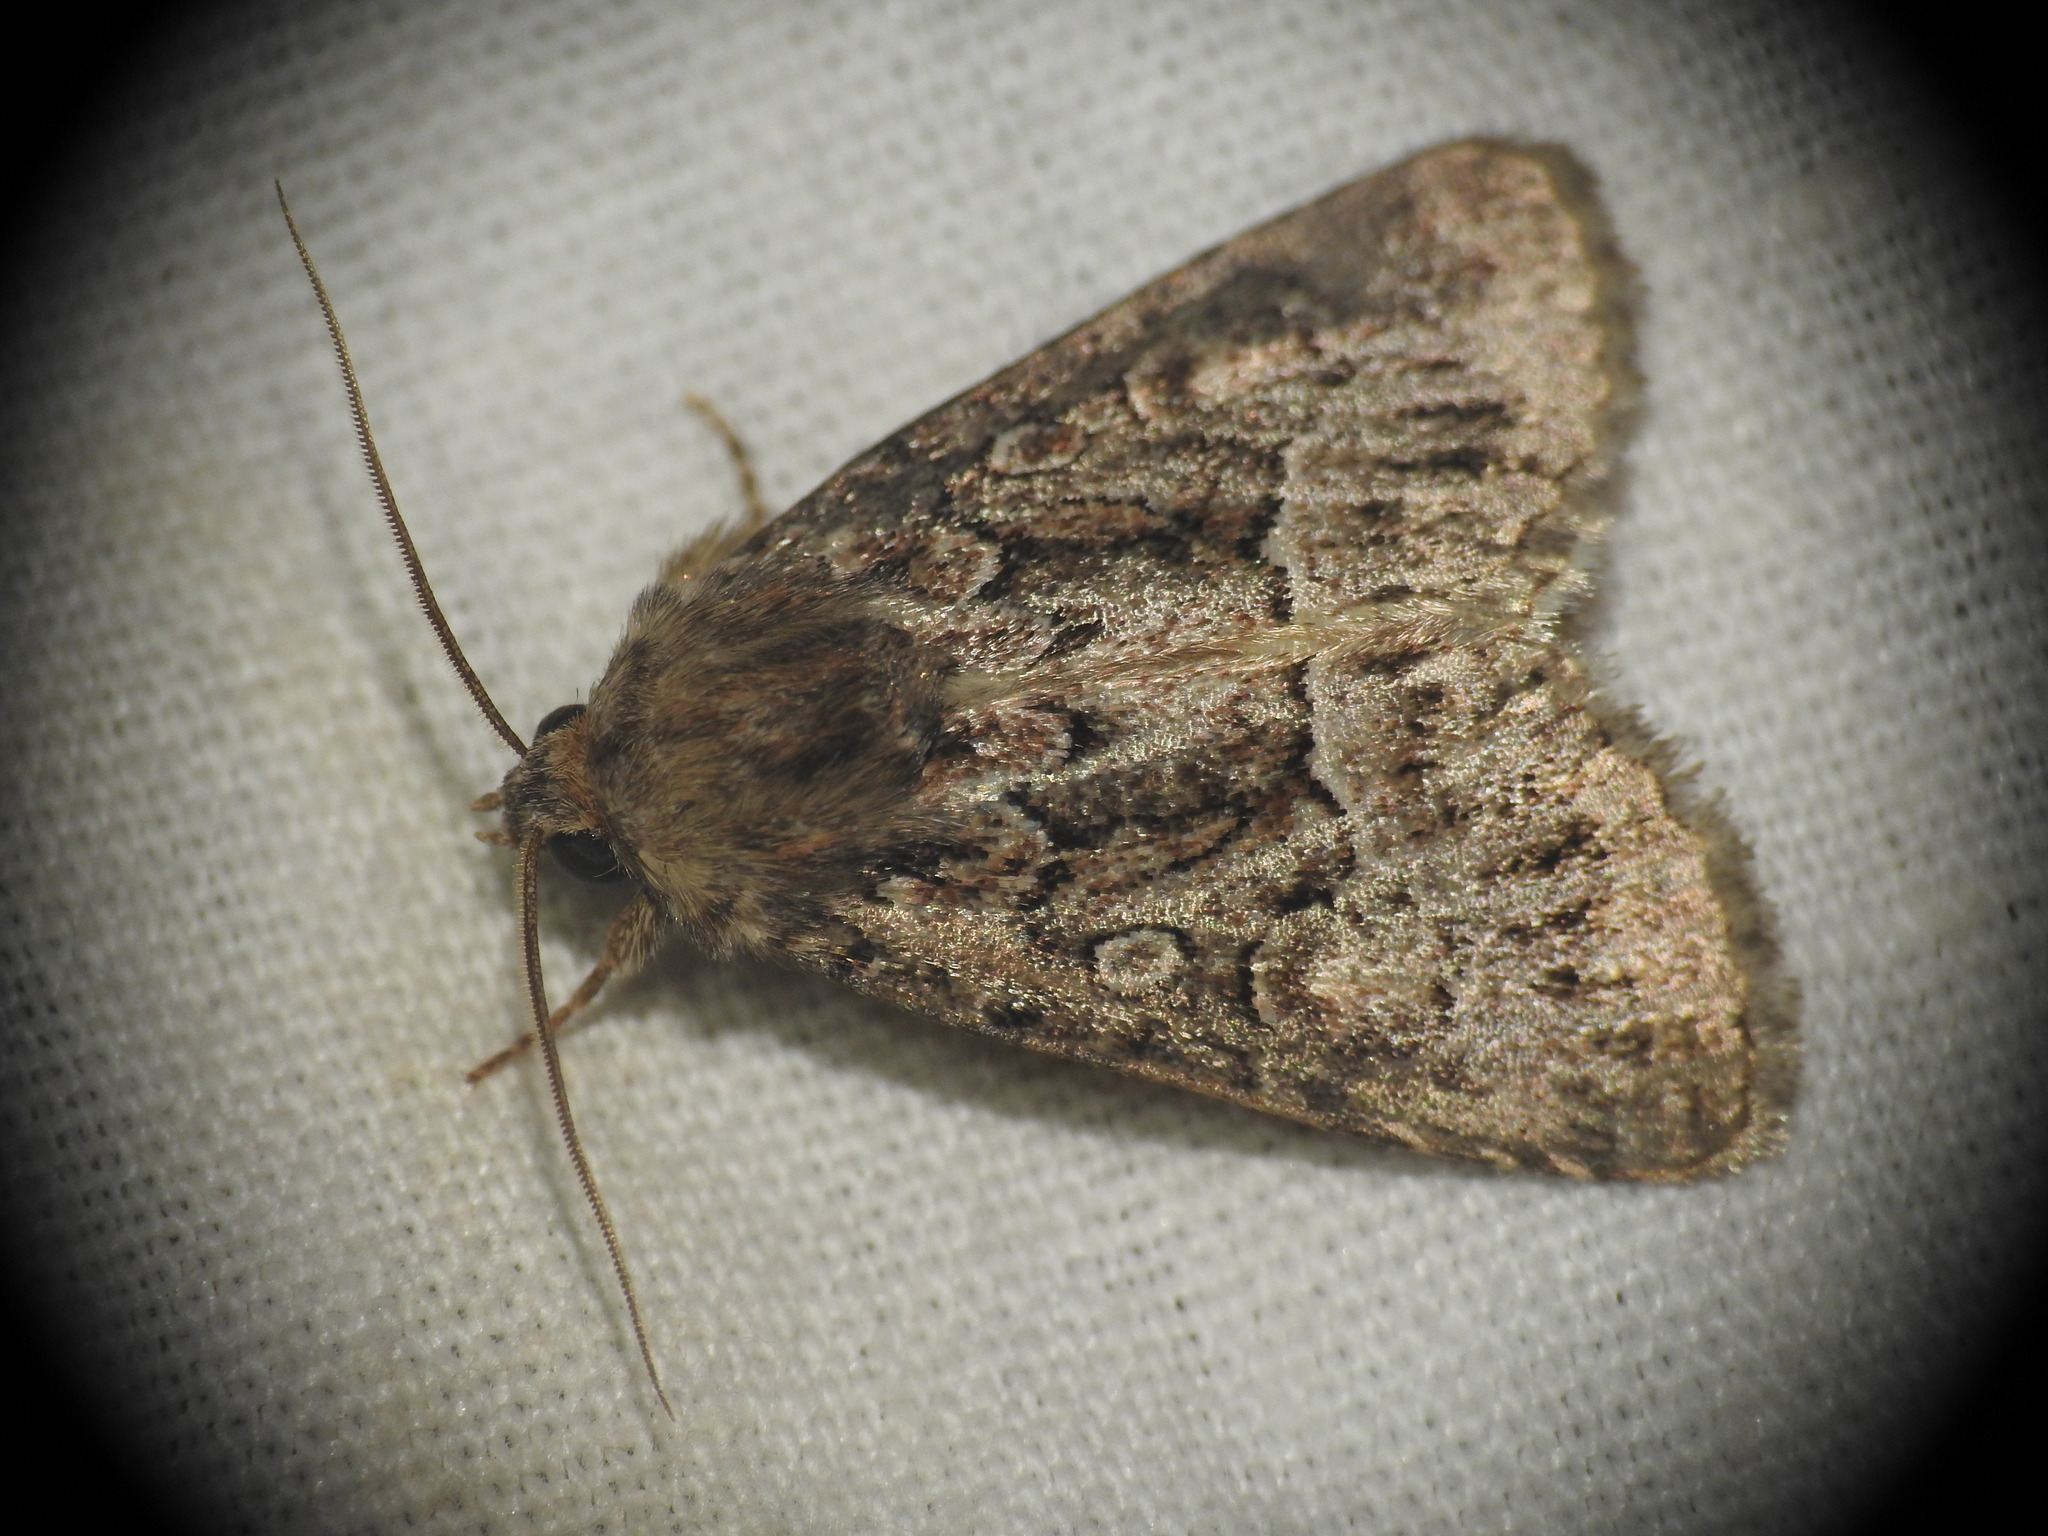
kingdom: Animalia
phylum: Arthropoda
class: Insecta
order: Lepidoptera
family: Noctuidae
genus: Thalpophila
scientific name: Thalpophila matura
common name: Straw underwing
